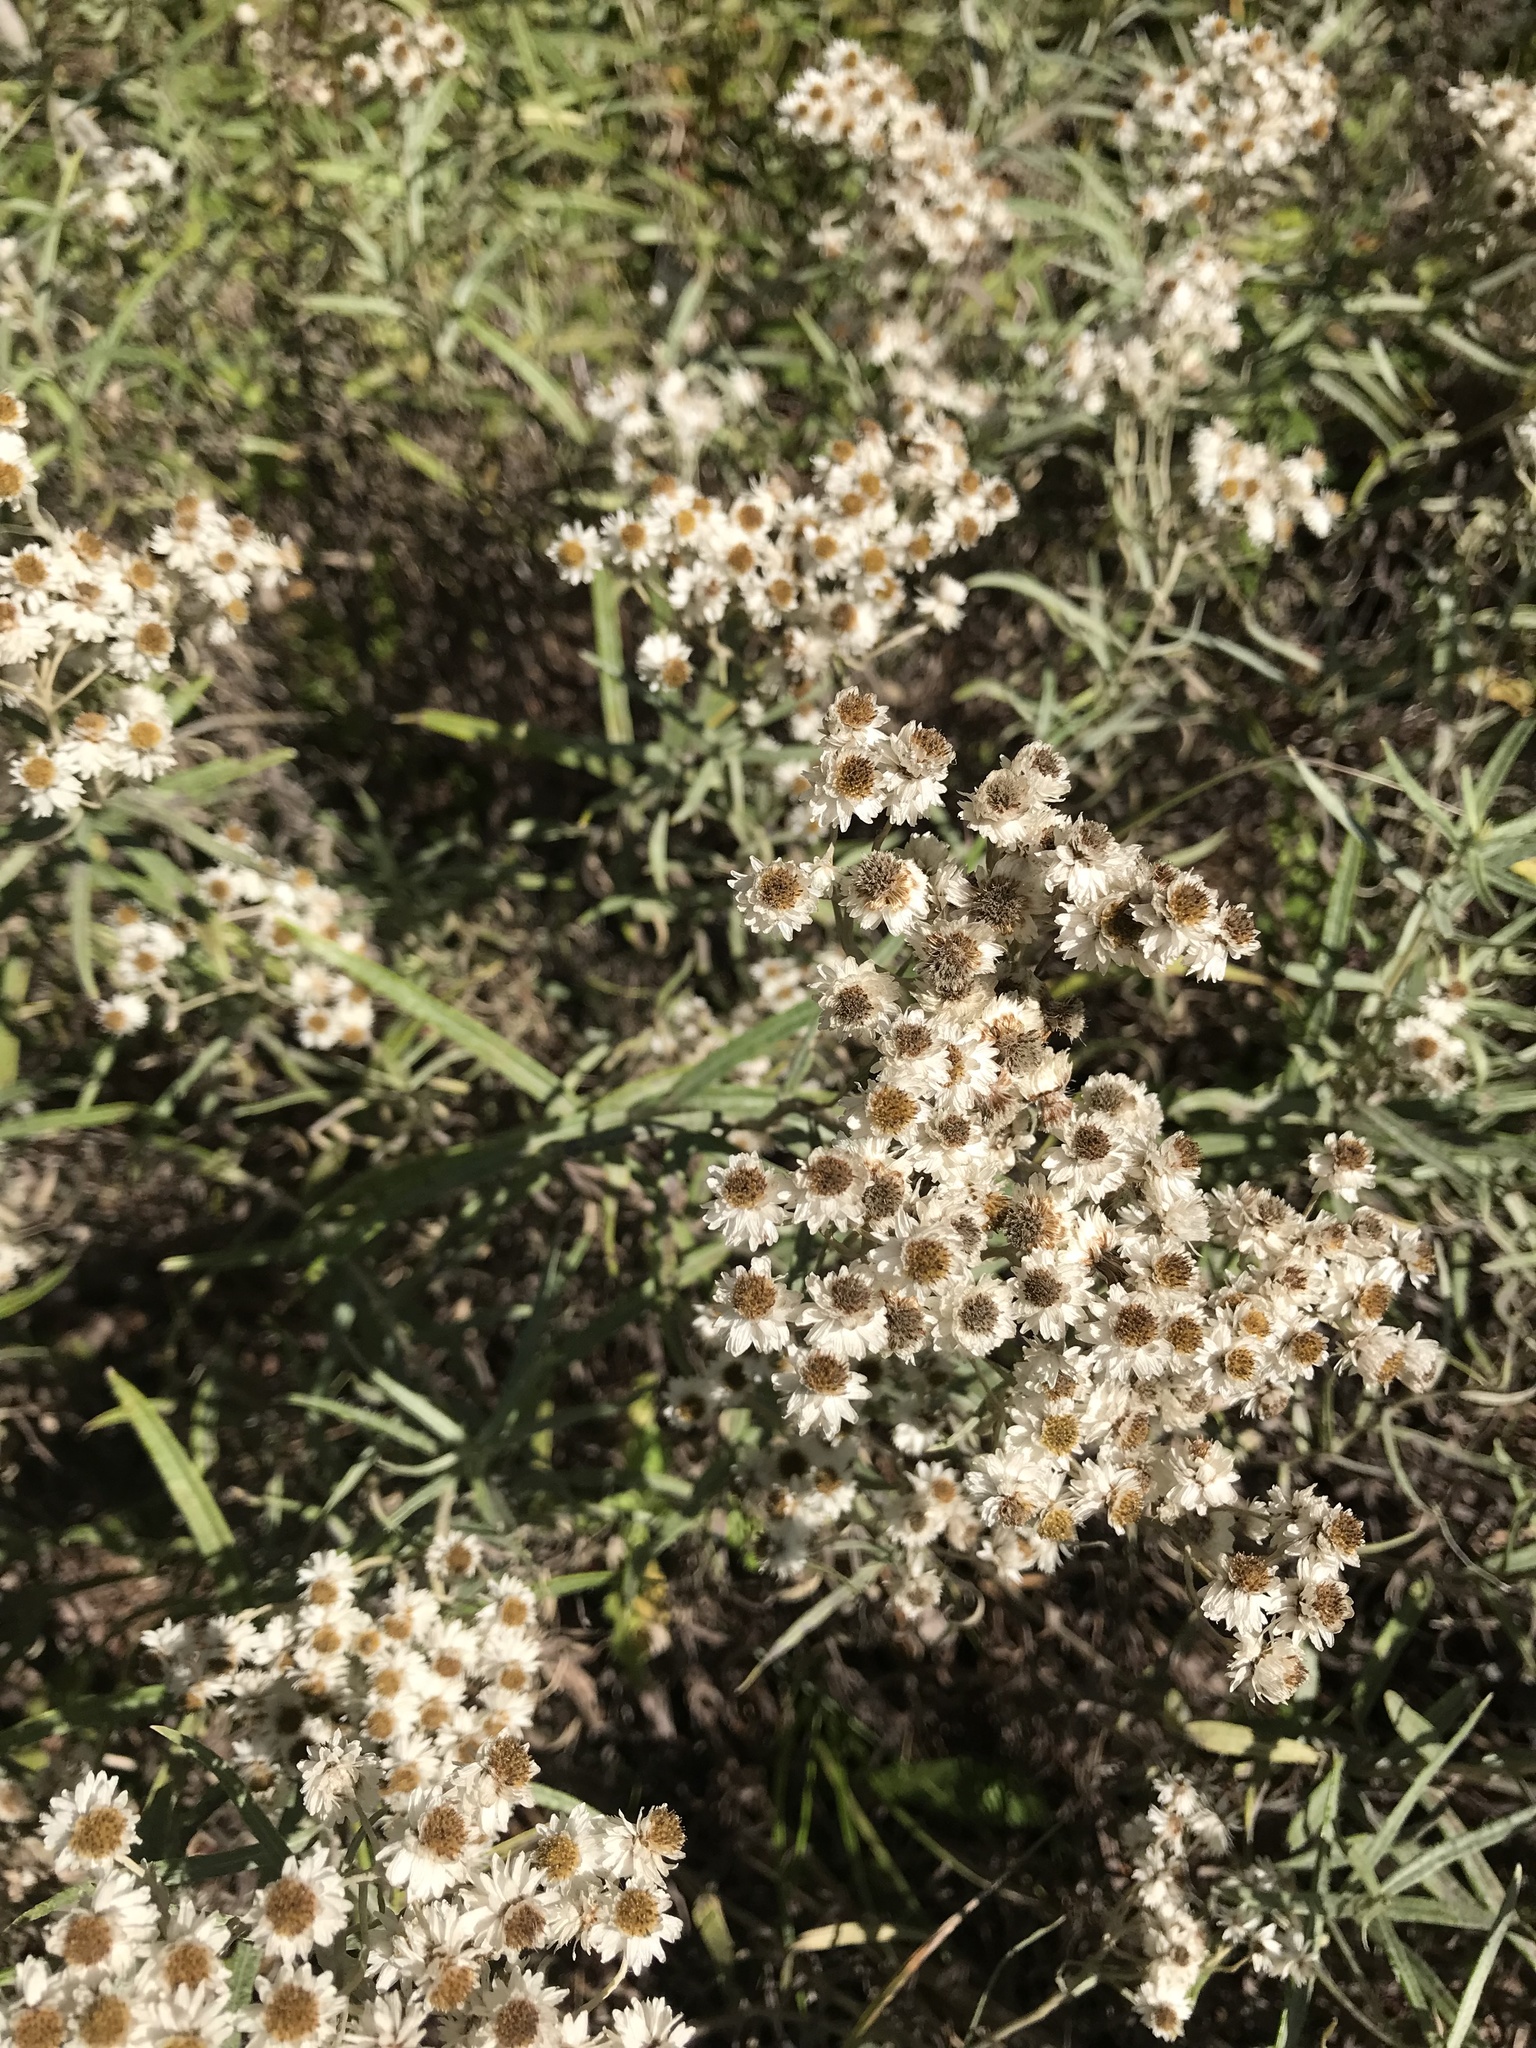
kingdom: Plantae
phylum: Tracheophyta
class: Magnoliopsida
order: Asterales
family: Asteraceae
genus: Anaphalis
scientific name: Anaphalis margaritacea
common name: Pearly everlasting
